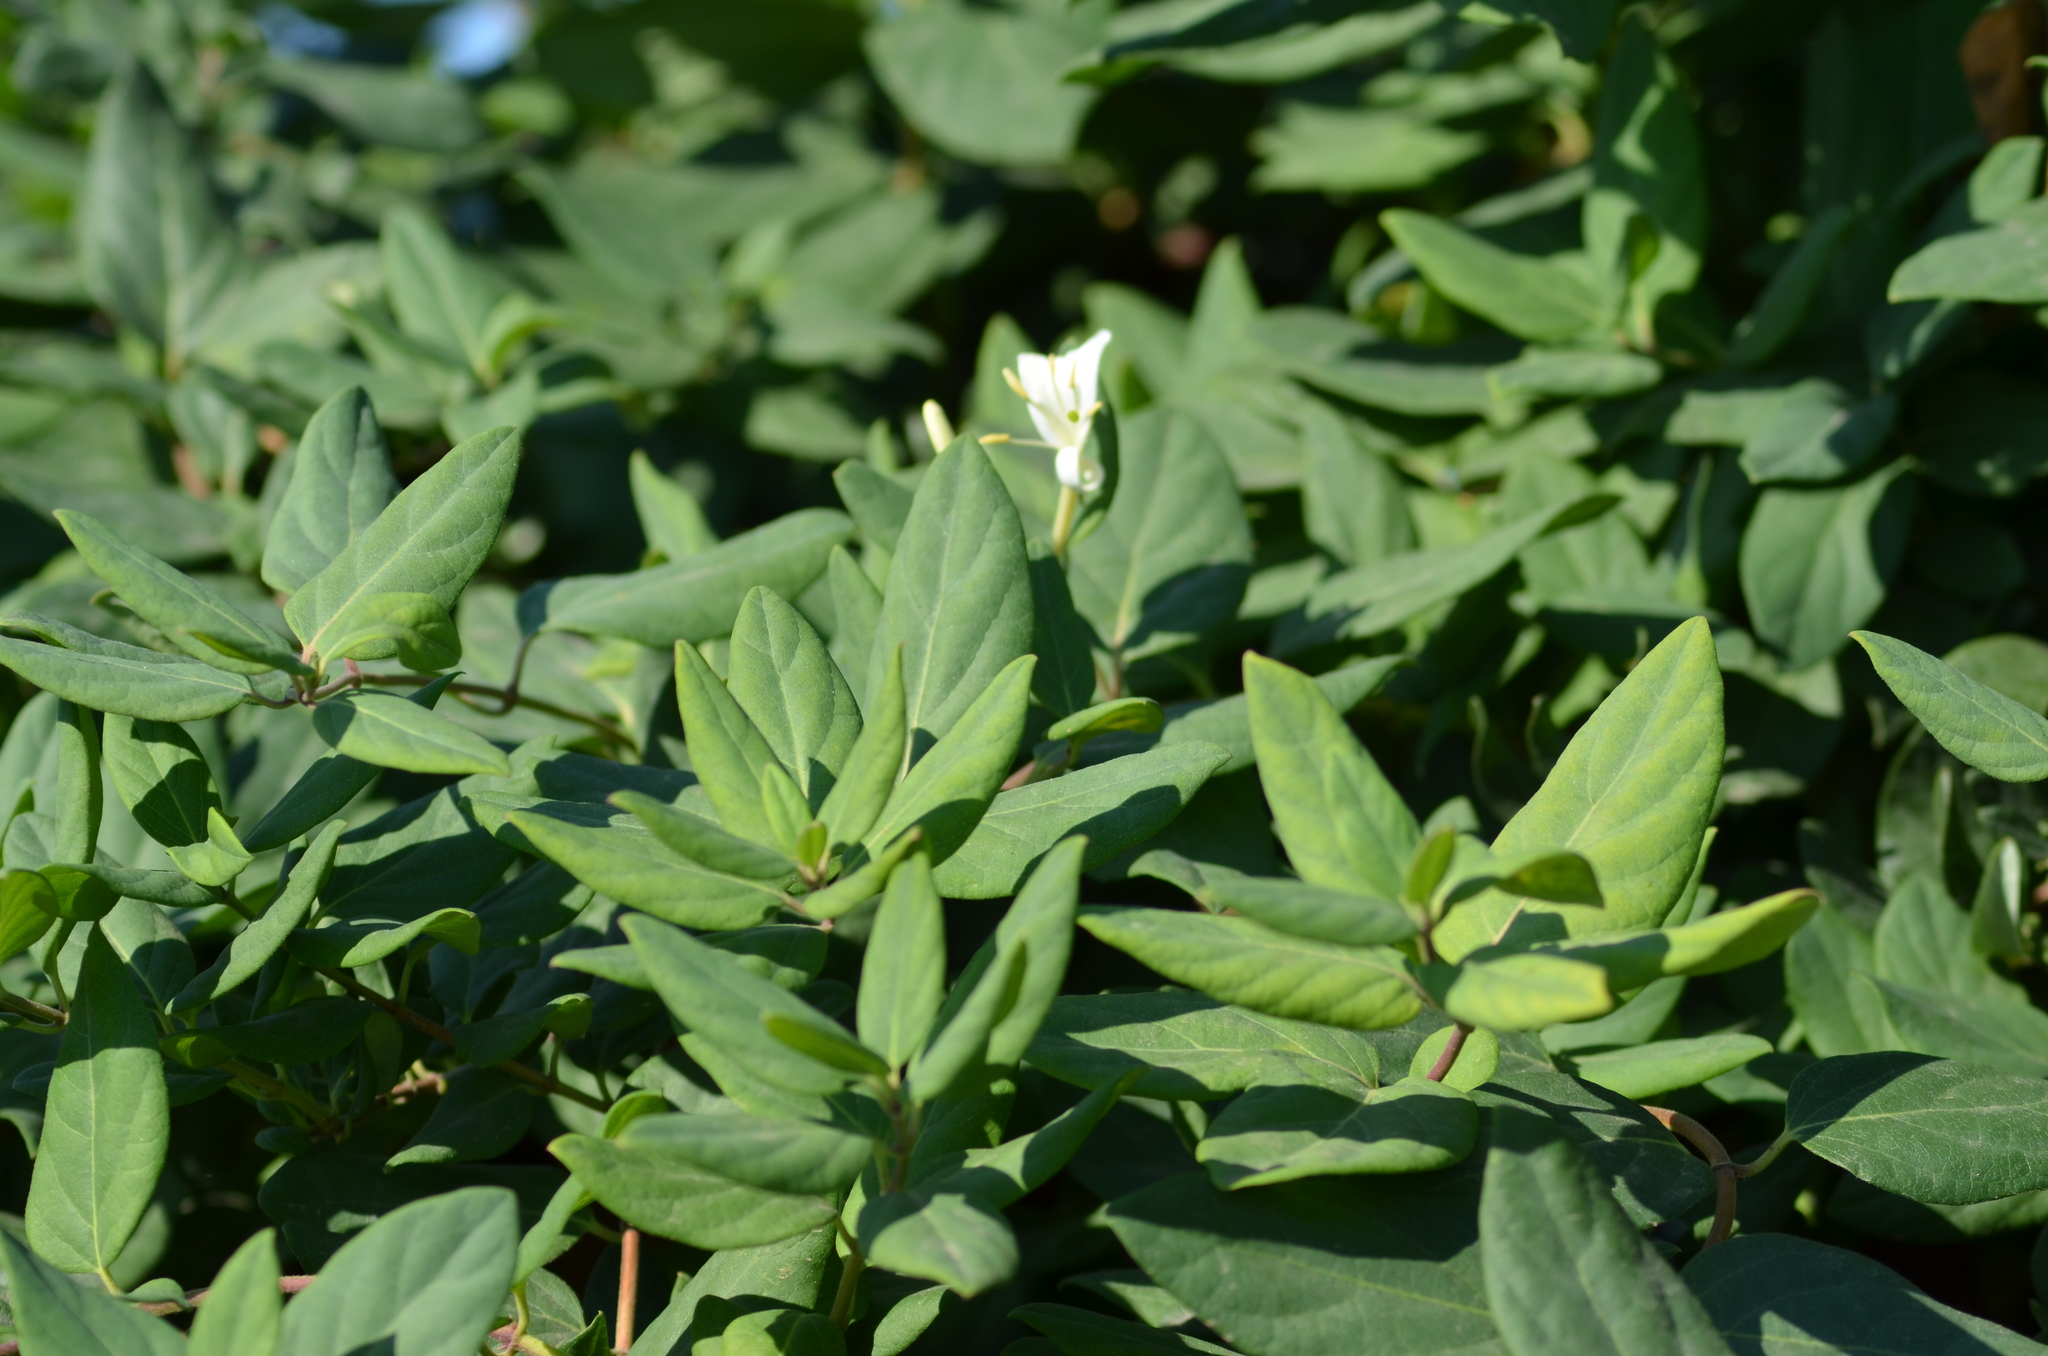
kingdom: Plantae
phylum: Tracheophyta
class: Magnoliopsida
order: Dipsacales
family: Caprifoliaceae
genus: Lonicera
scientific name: Lonicera japonica
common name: Japanese honeysuckle
